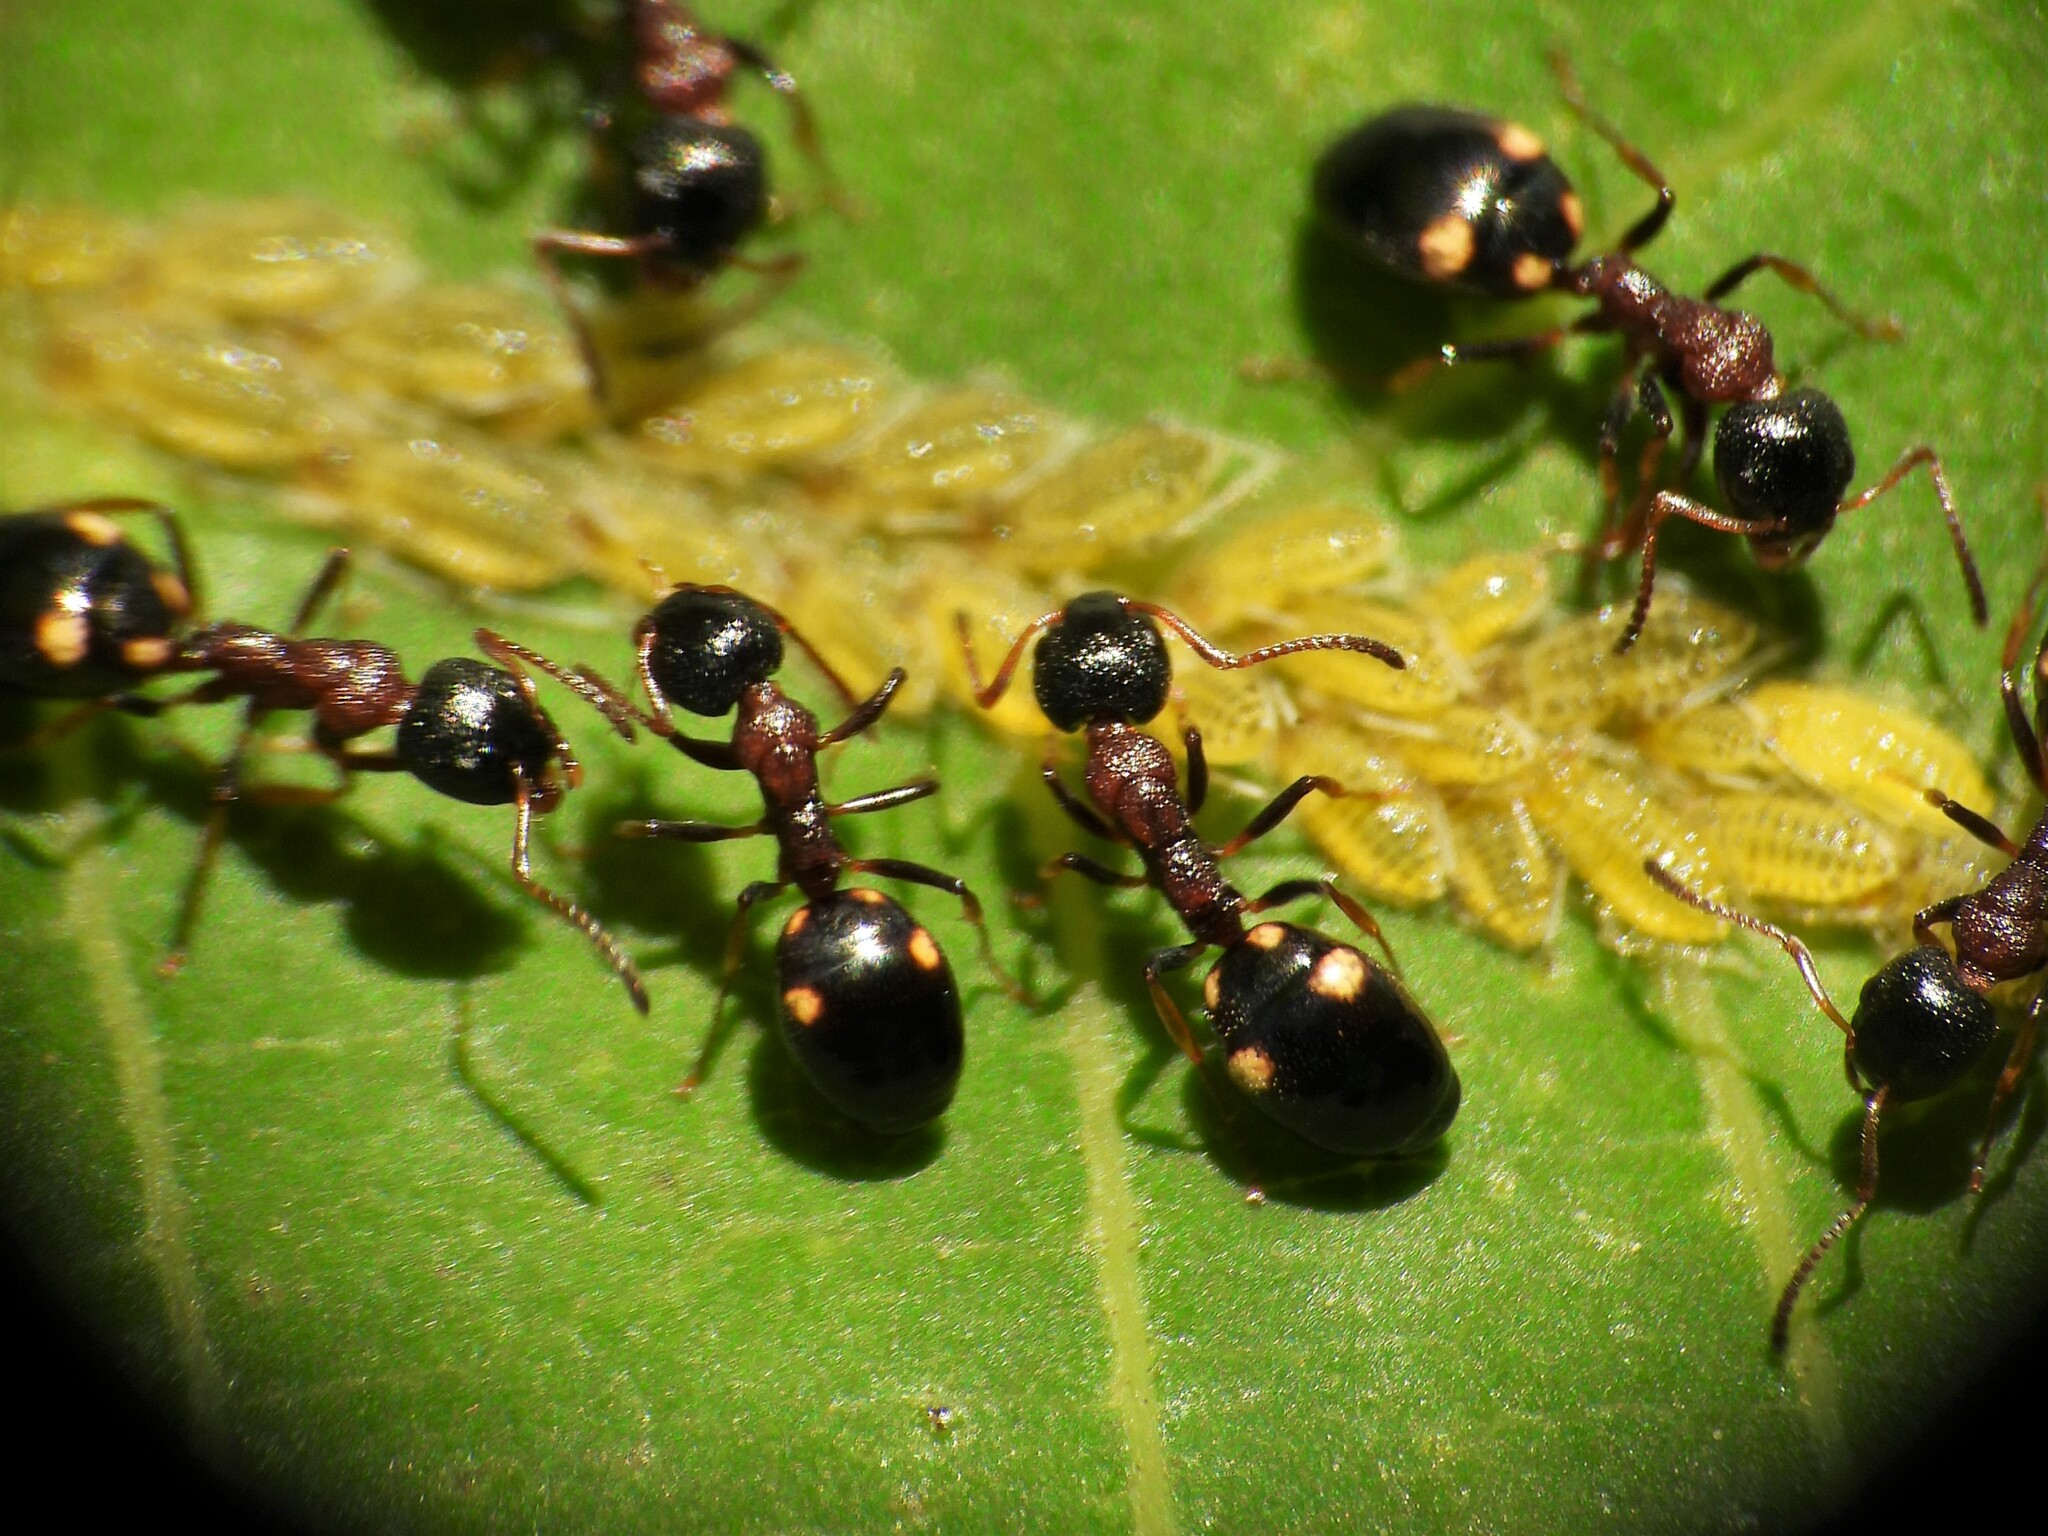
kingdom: Animalia
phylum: Arthropoda
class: Insecta
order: Hymenoptera
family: Formicidae
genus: Dolichoderus
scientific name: Dolichoderus quadripunctatus
